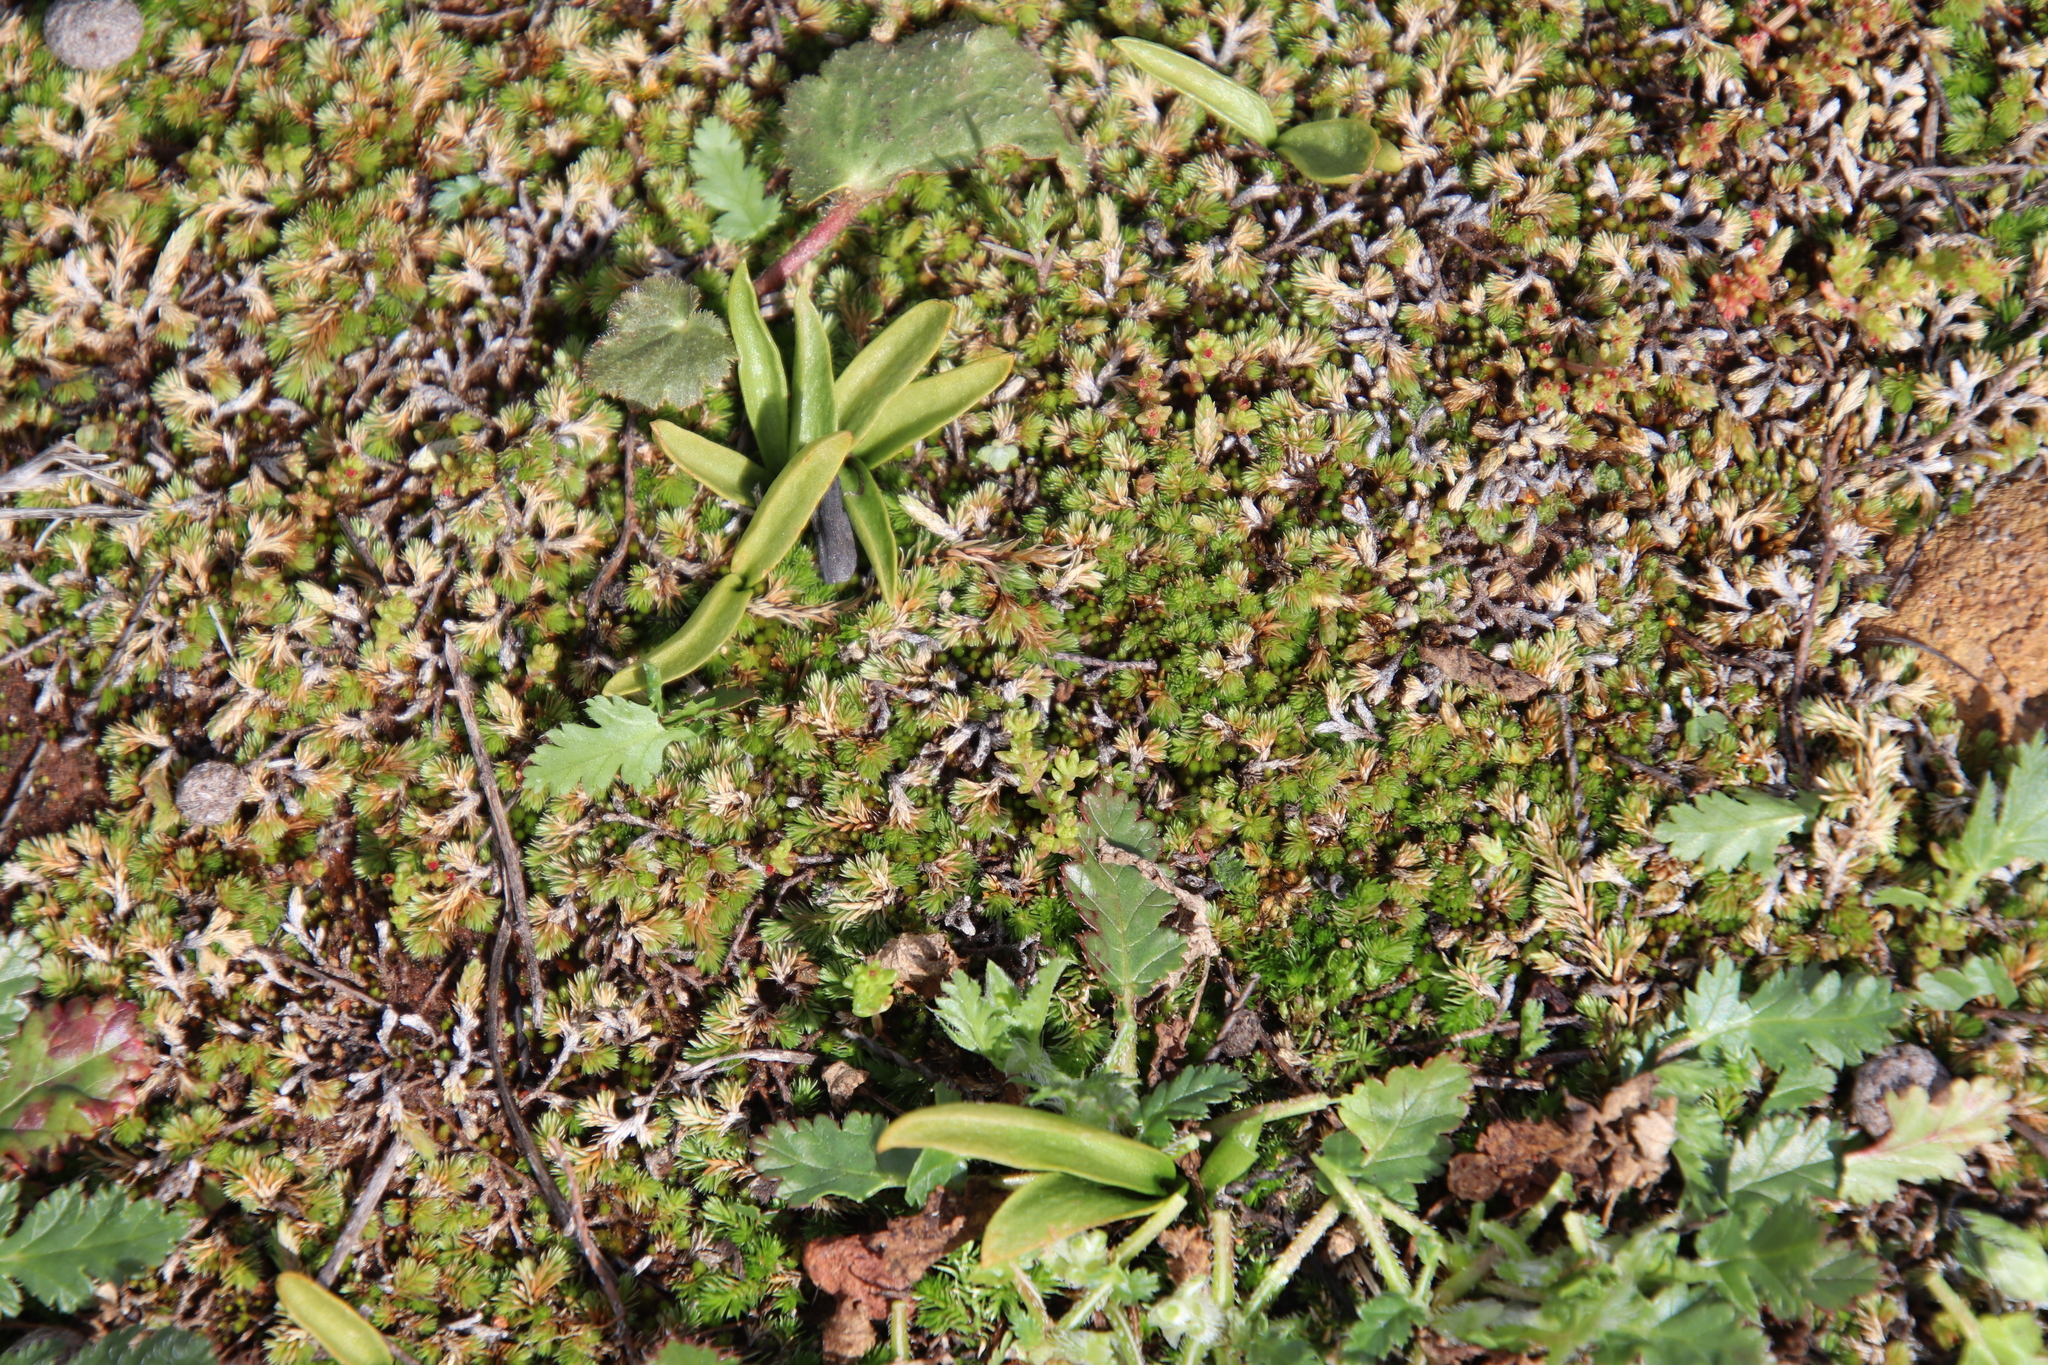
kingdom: Plantae
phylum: Tracheophyta
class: Polypodiopsida
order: Ophioglossales
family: Ophioglossaceae
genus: Ophioglossum
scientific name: Ophioglossum californicum
